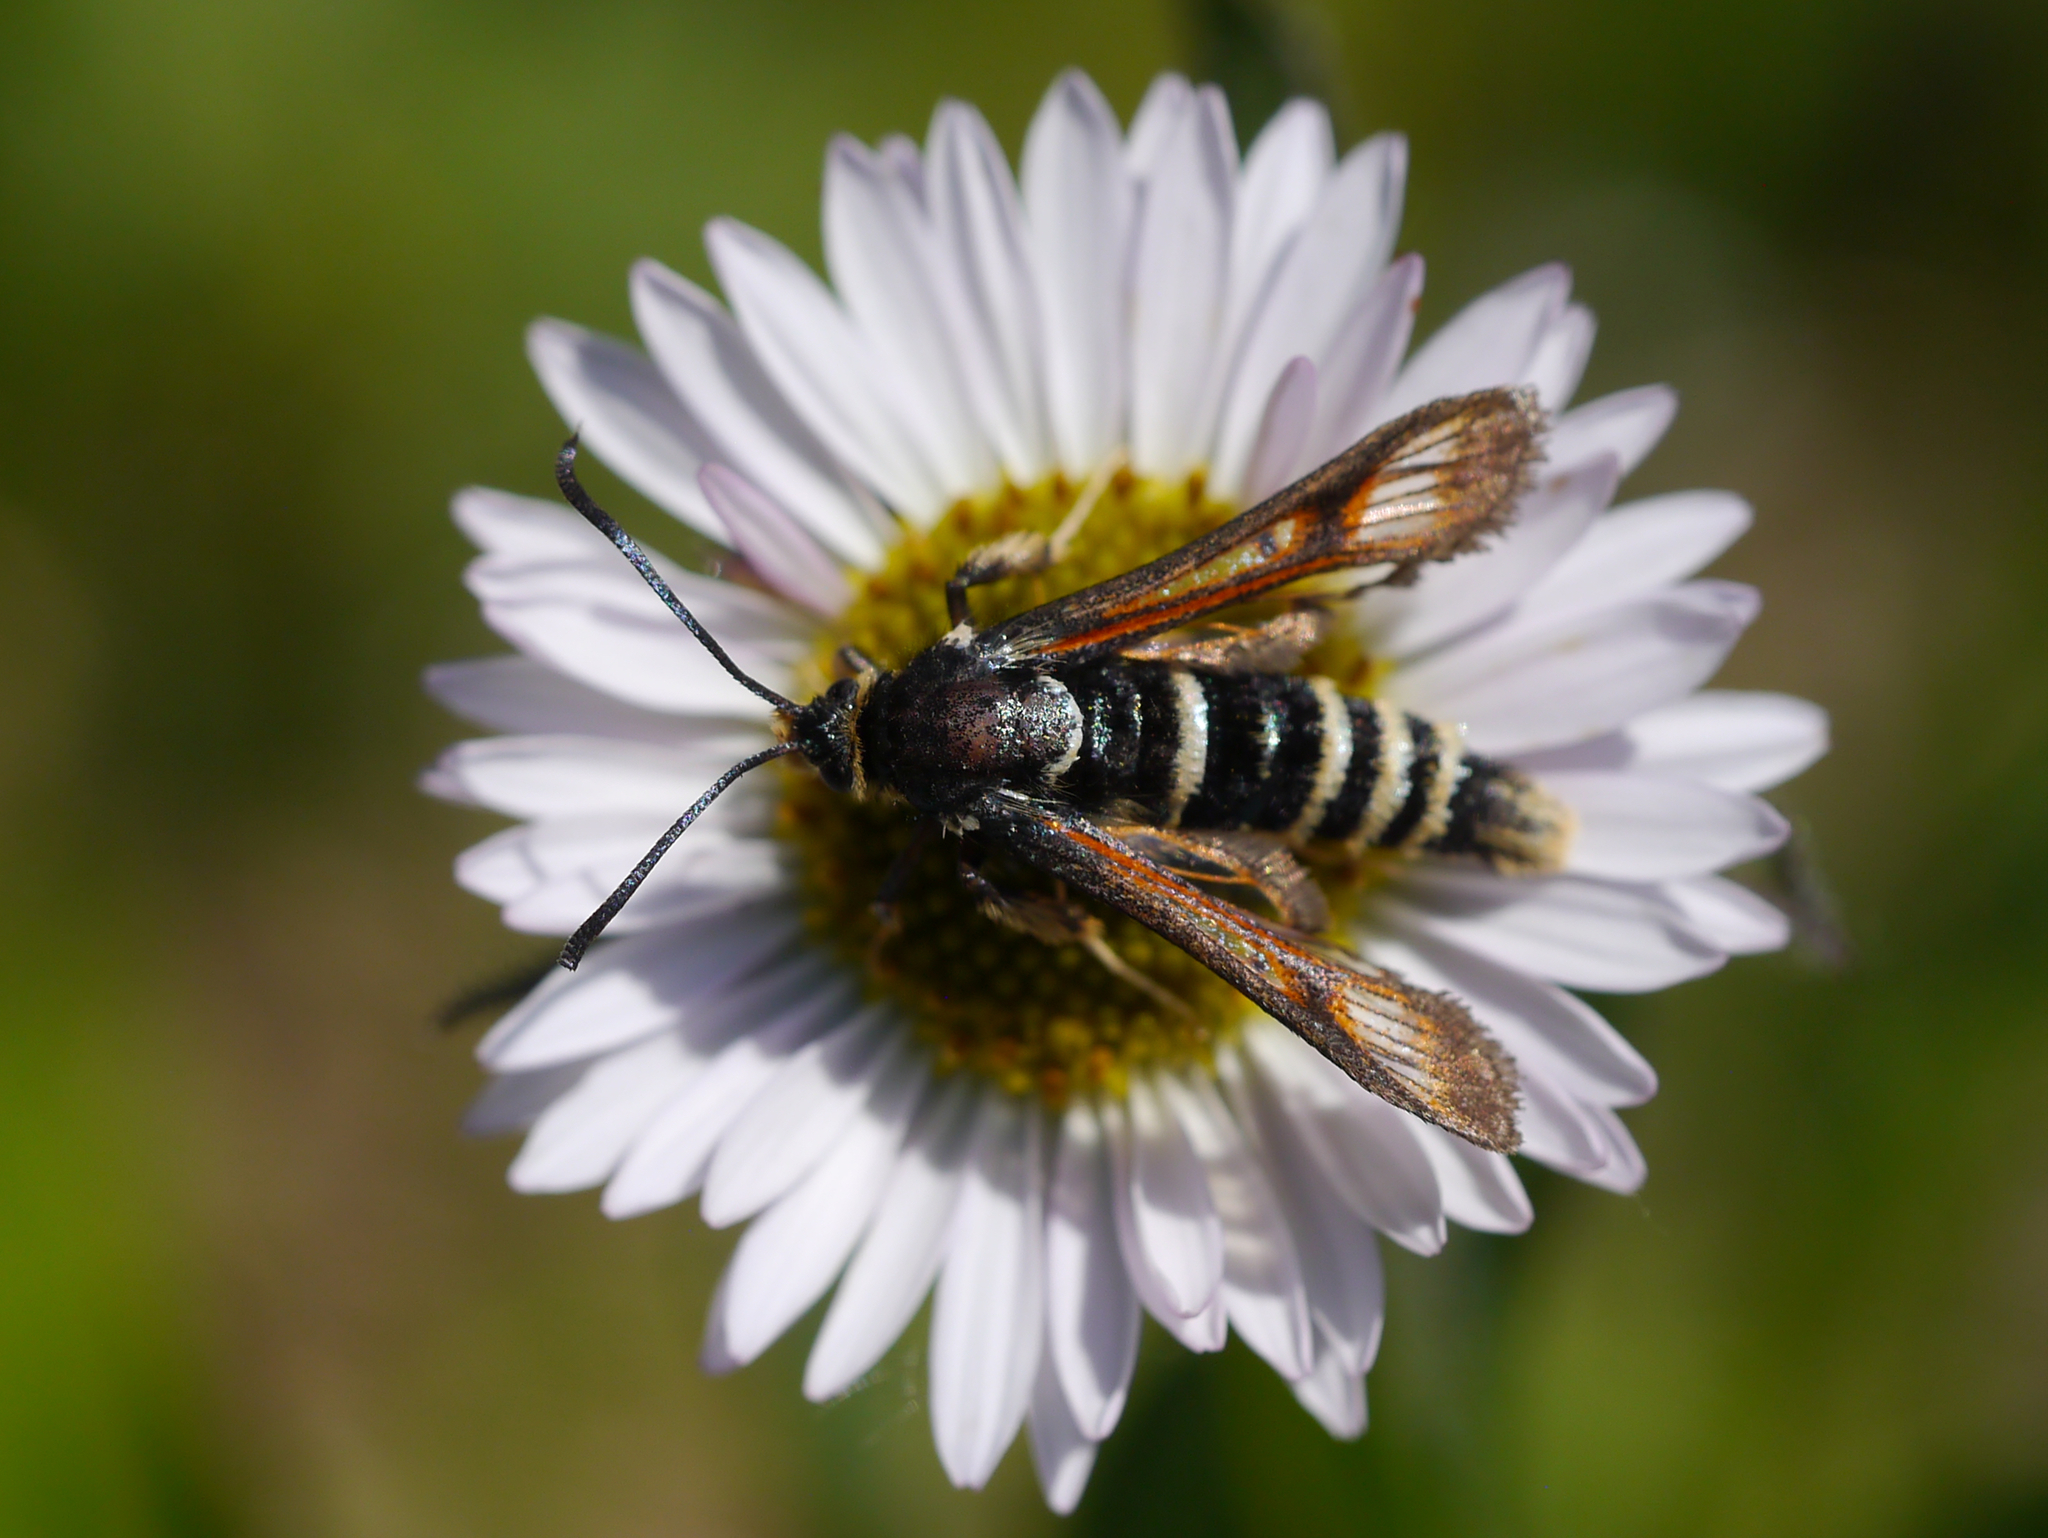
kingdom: Animalia
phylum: Arthropoda
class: Insecta
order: Lepidoptera
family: Sesiidae
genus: Albuna
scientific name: Albuna pyramidalis
